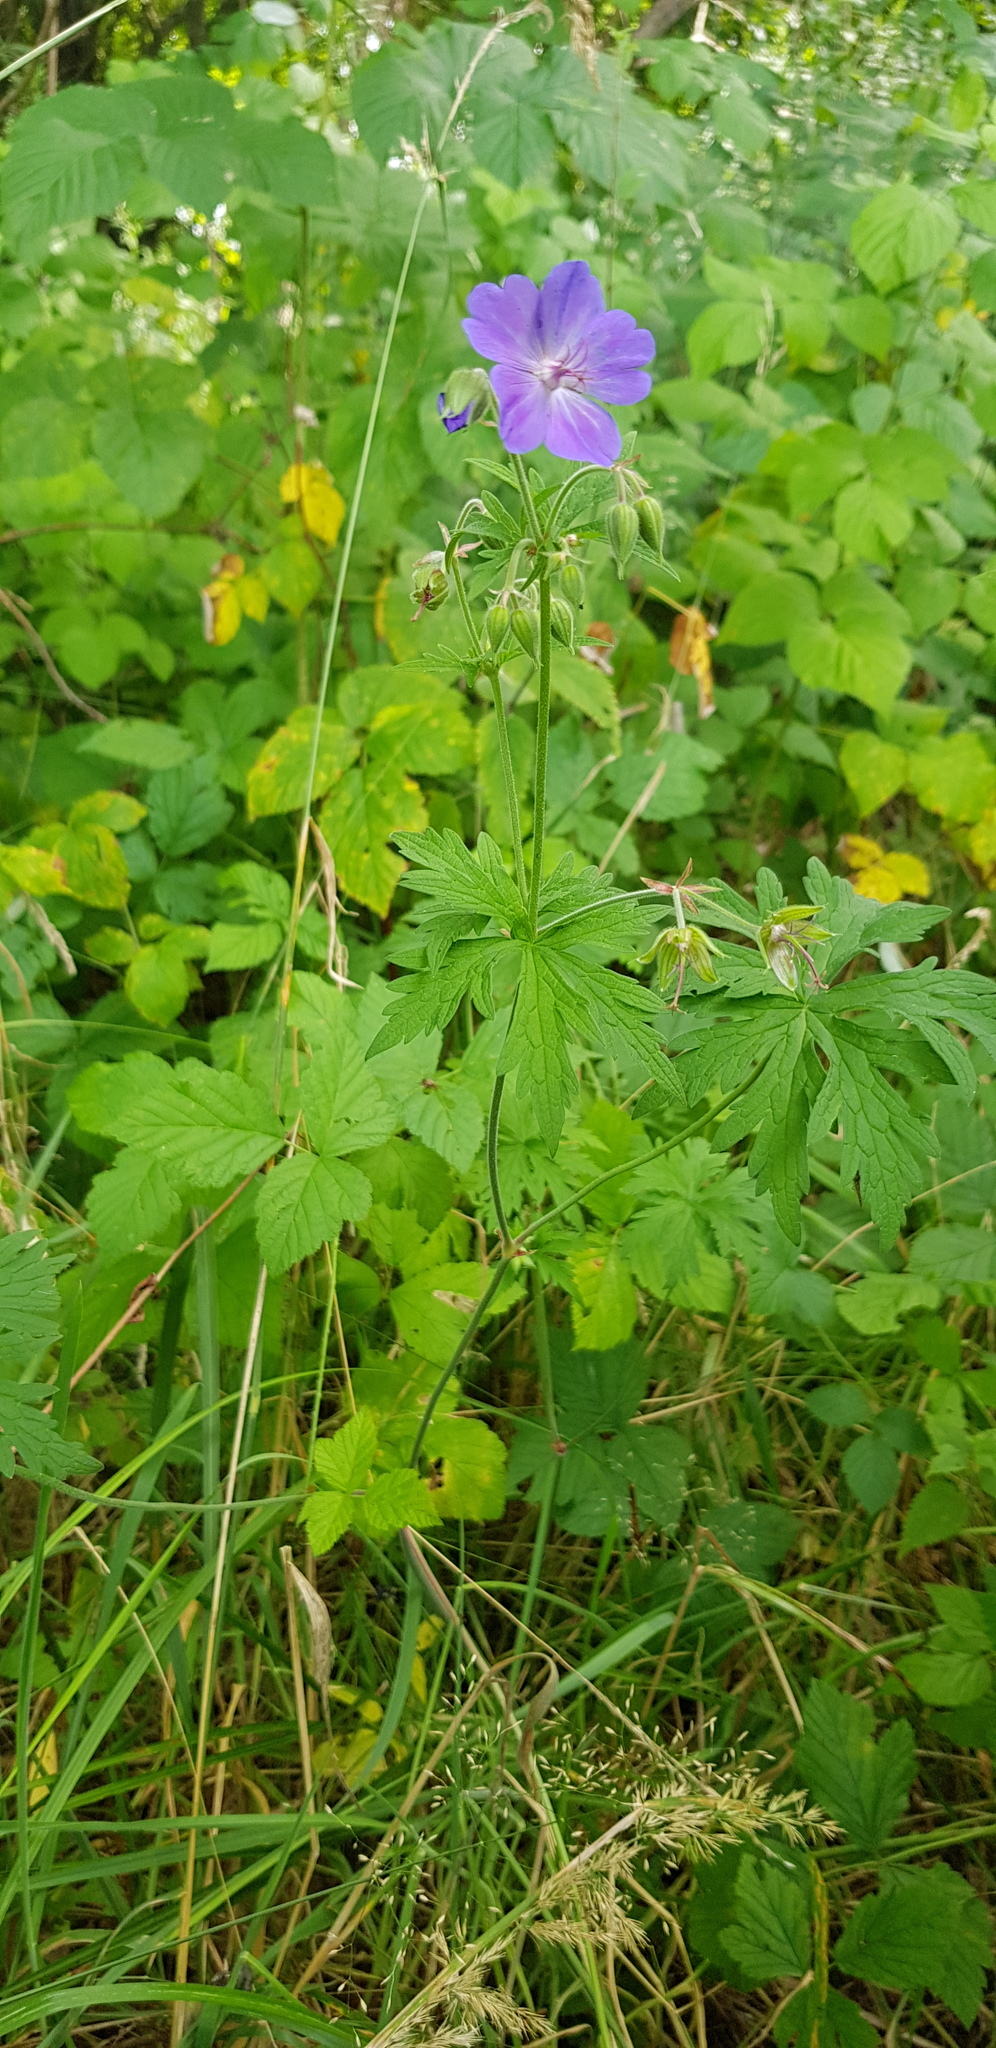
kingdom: Plantae
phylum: Tracheophyta
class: Magnoliopsida
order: Geraniales
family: Geraniaceae
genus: Geranium
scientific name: Geranium pratense
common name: Meadow crane's-bill
